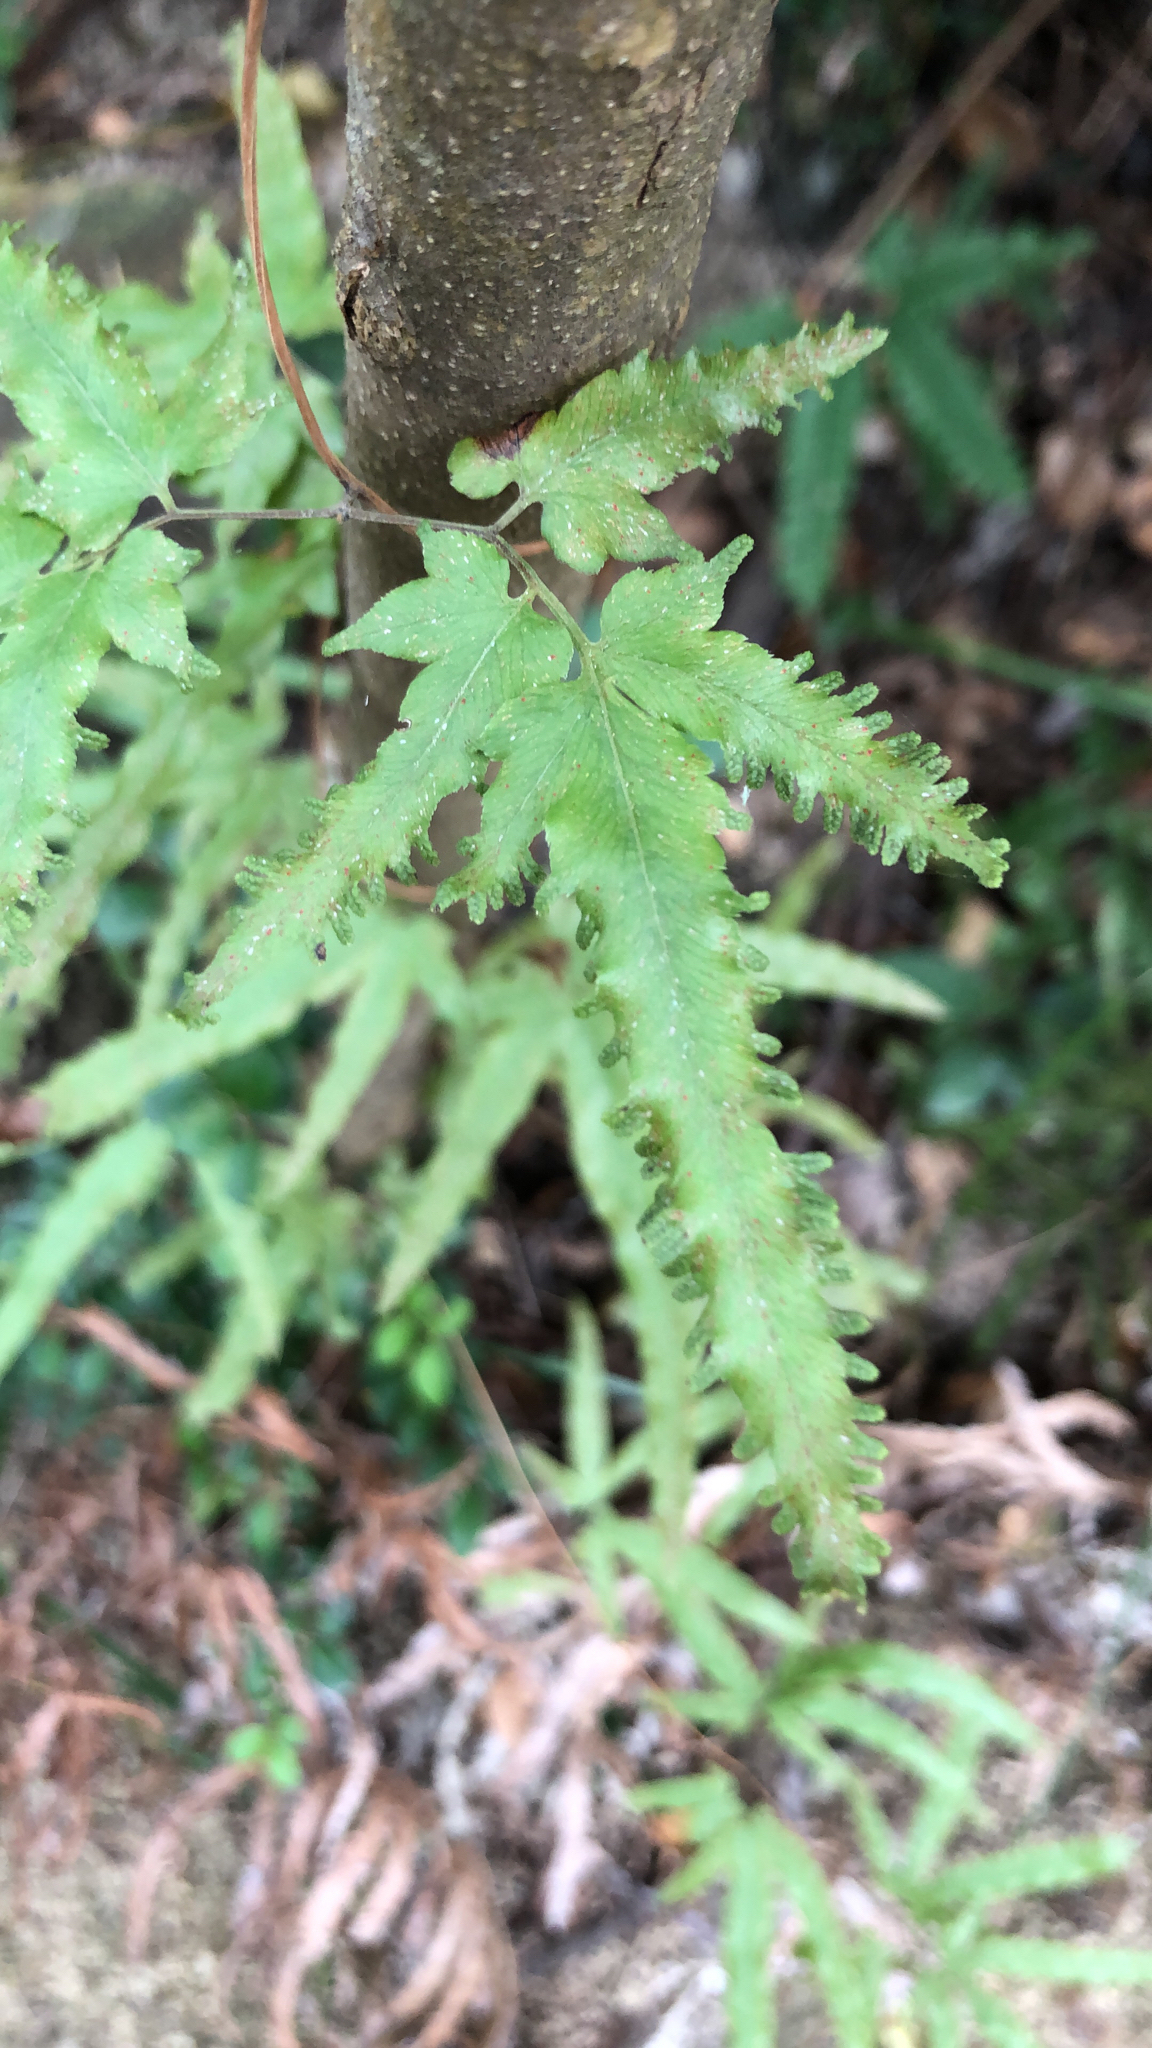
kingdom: Plantae
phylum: Tracheophyta
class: Polypodiopsida
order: Schizaeales
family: Lygodiaceae
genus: Lygodium
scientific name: Lygodium japonicum
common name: Japanese climbing fern
